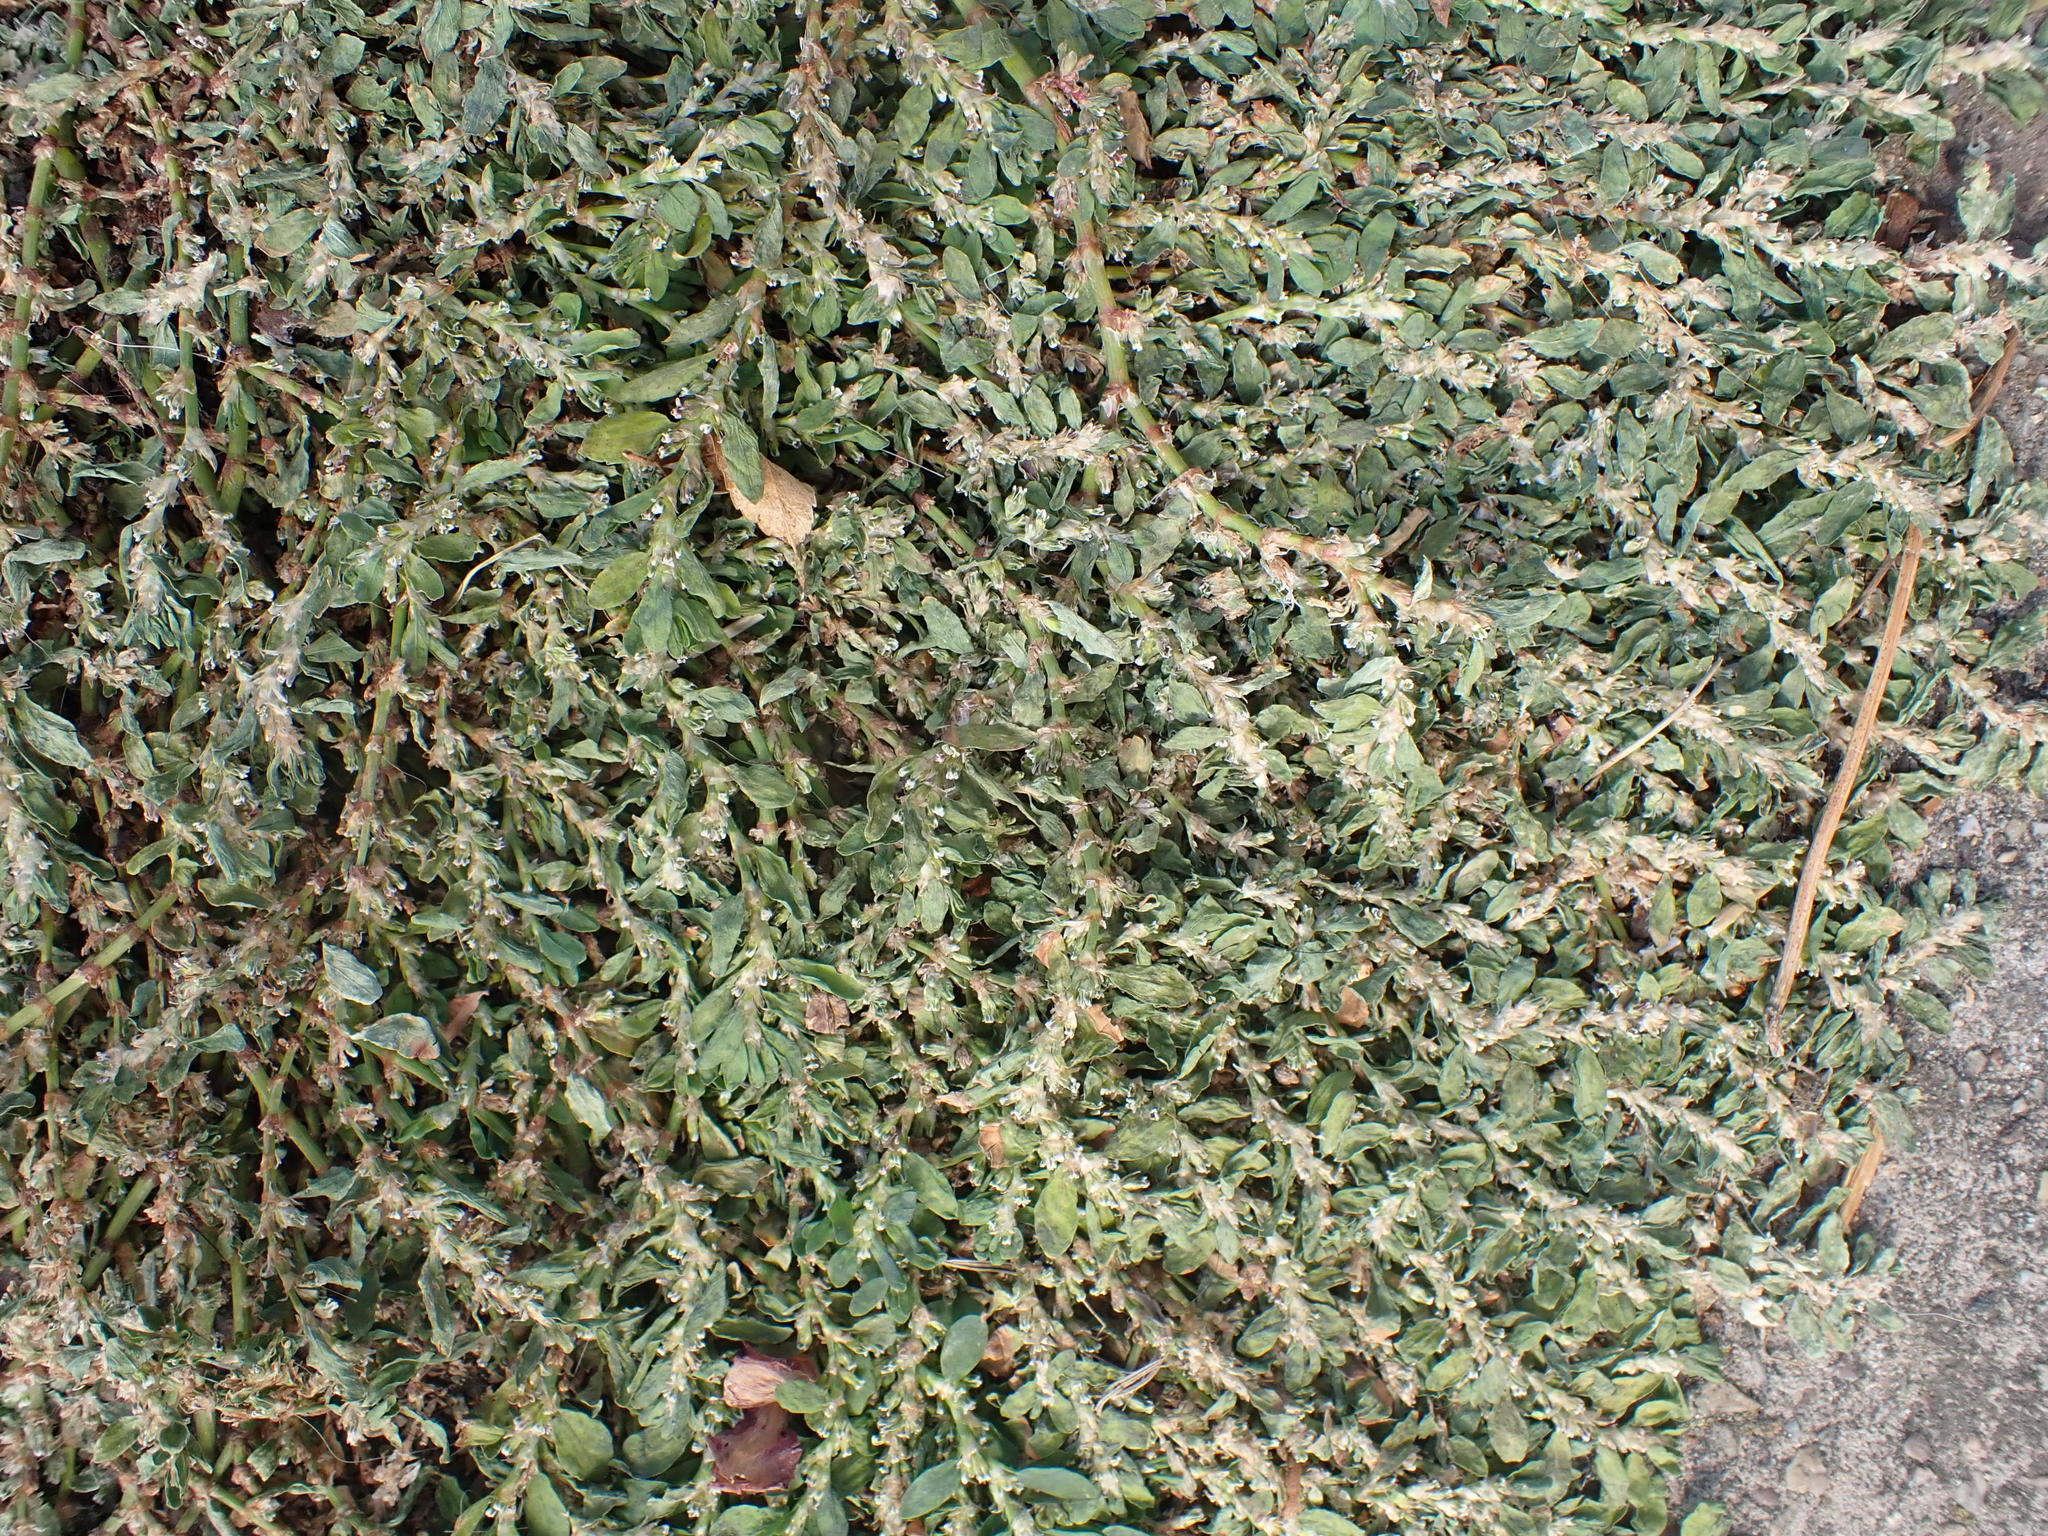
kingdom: Plantae
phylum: Tracheophyta
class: Magnoliopsida
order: Caryophyllales
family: Polygonaceae
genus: Polygonum
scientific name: Polygonum arenastrum
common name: Equal-leaved knotgrass
